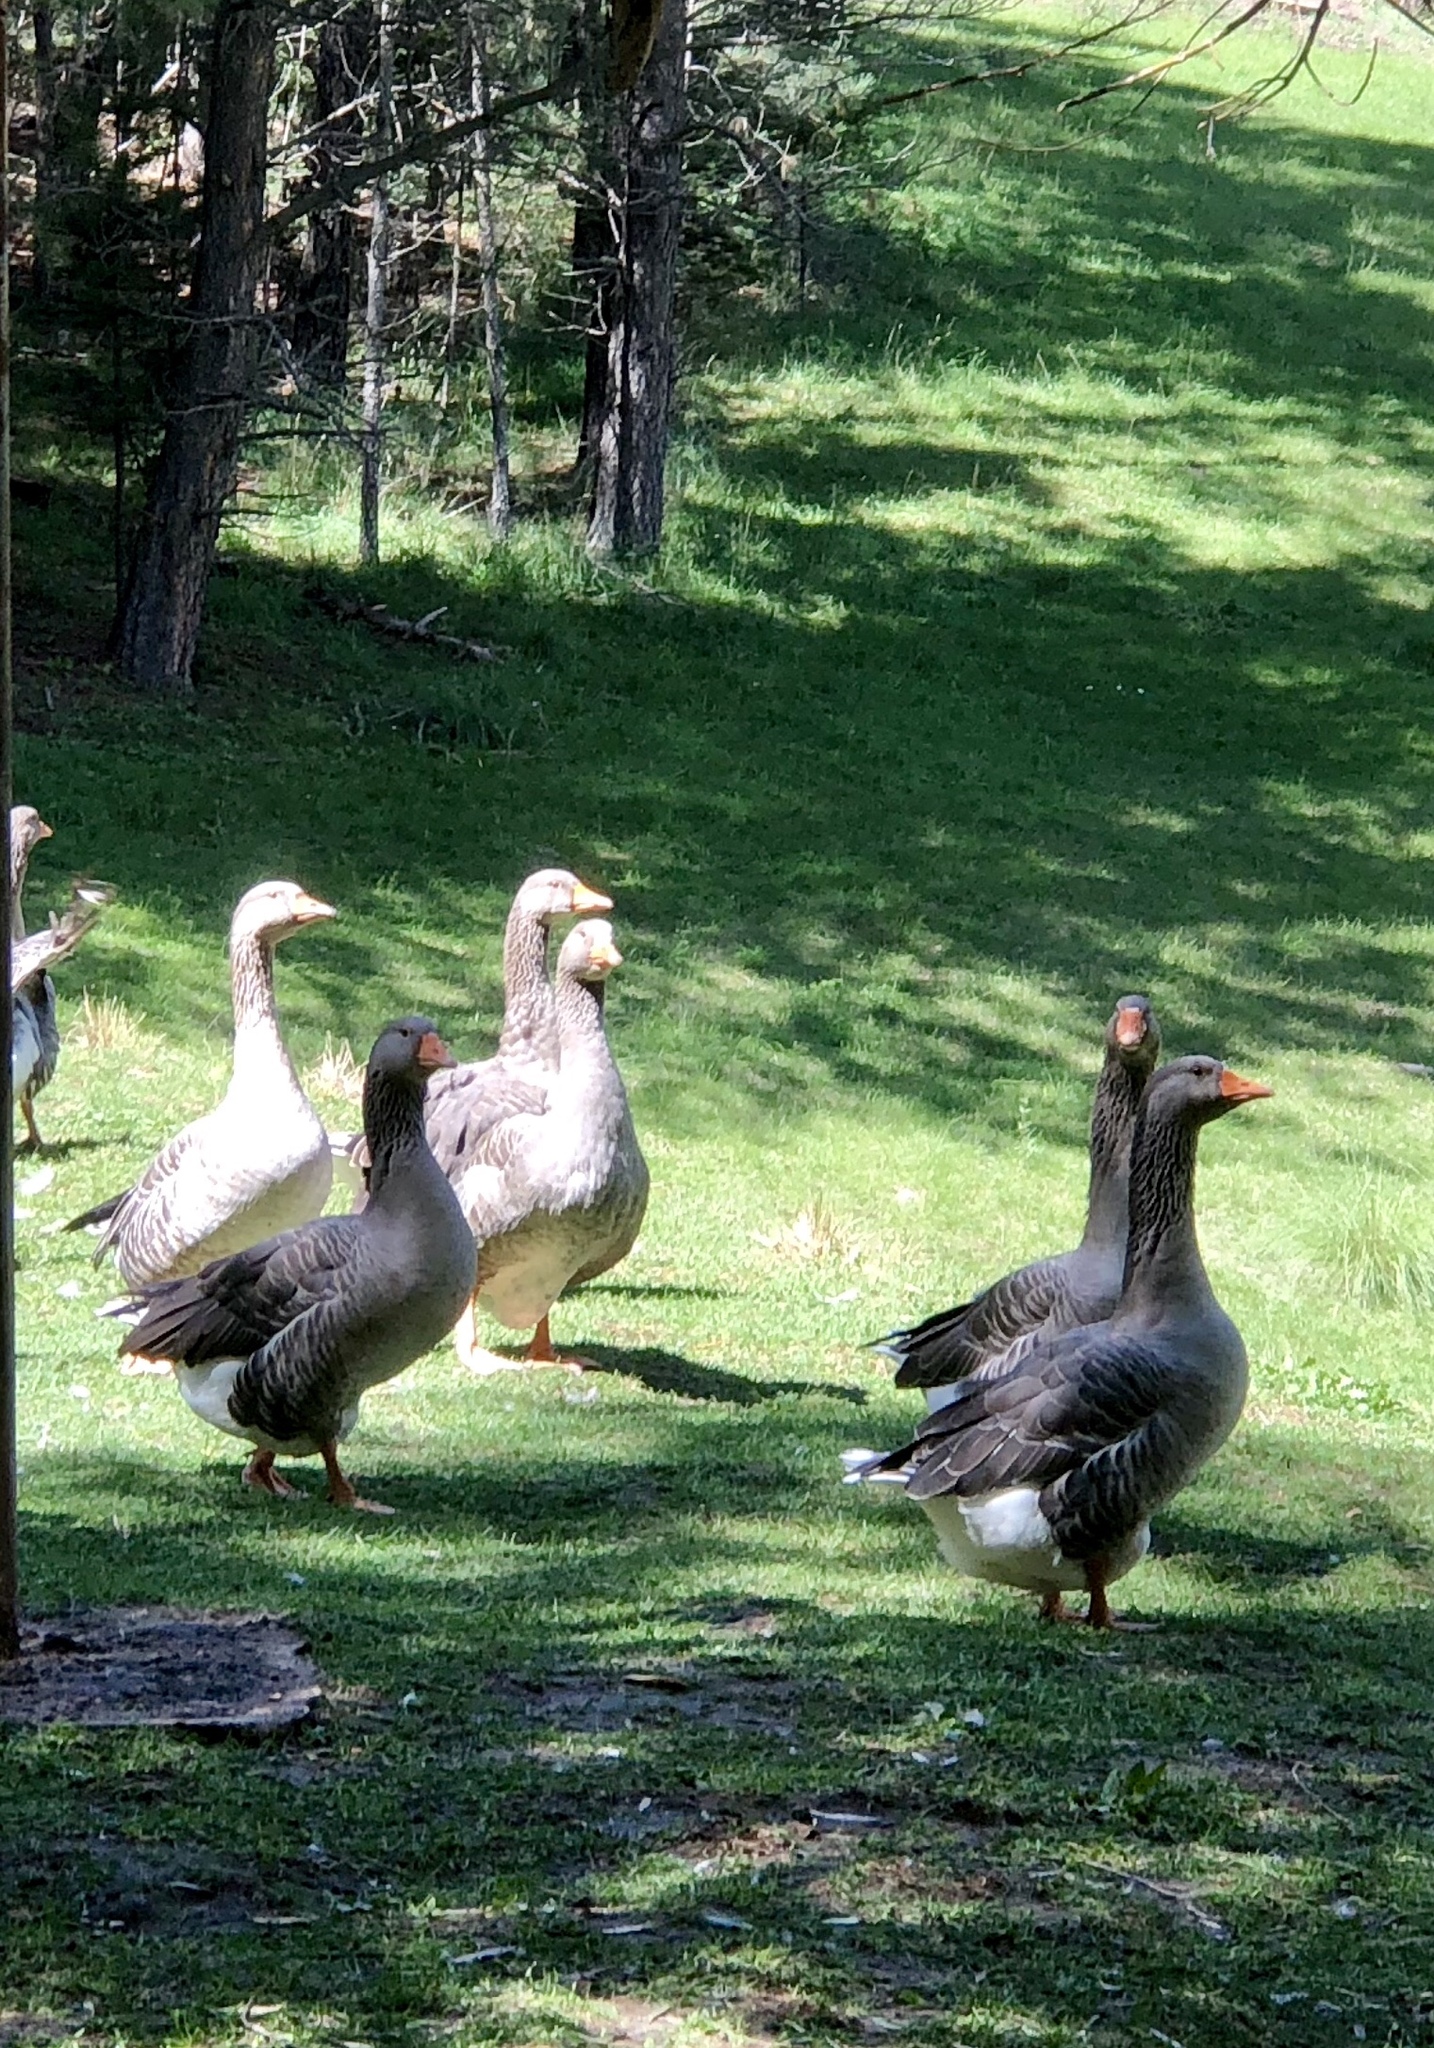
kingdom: Animalia
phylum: Chordata
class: Aves
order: Anseriformes
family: Anatidae
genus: Anser
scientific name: Anser anser
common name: Greylag goose
